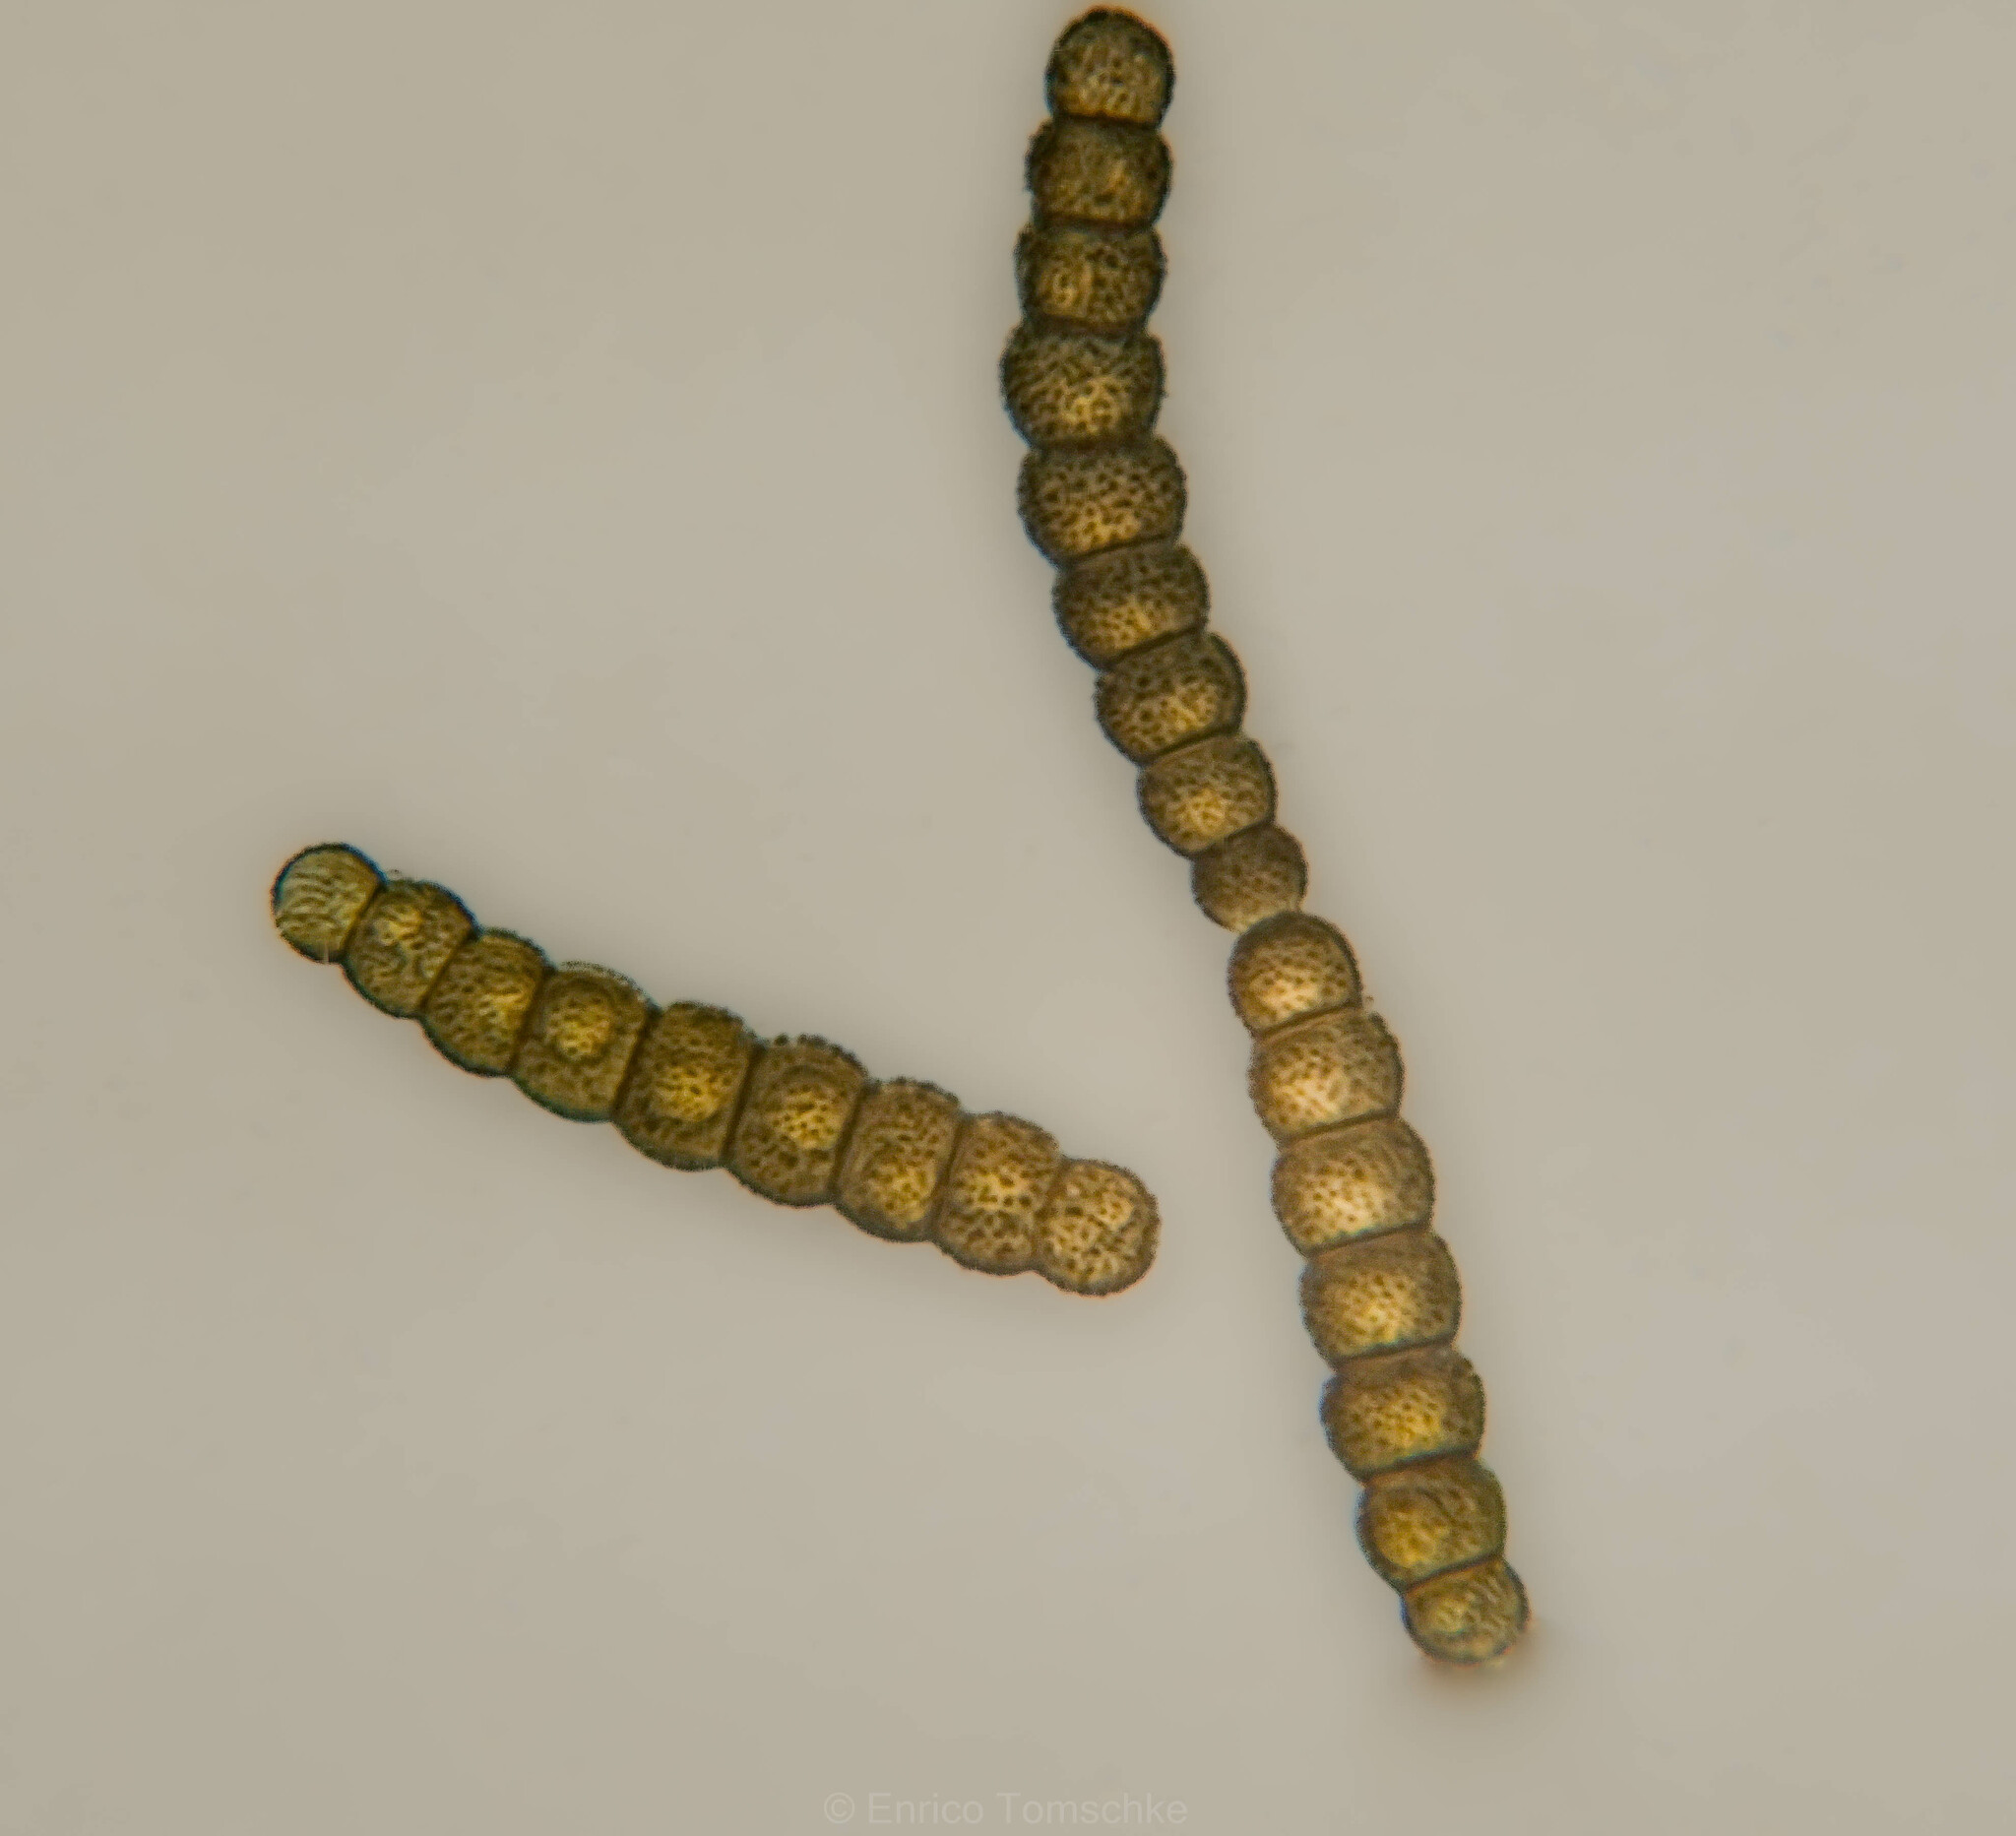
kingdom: Fungi
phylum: Ascomycota
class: Dothideomycetes
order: Pleosporales
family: Torulaceae
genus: Torula
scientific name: Torula herbarum
